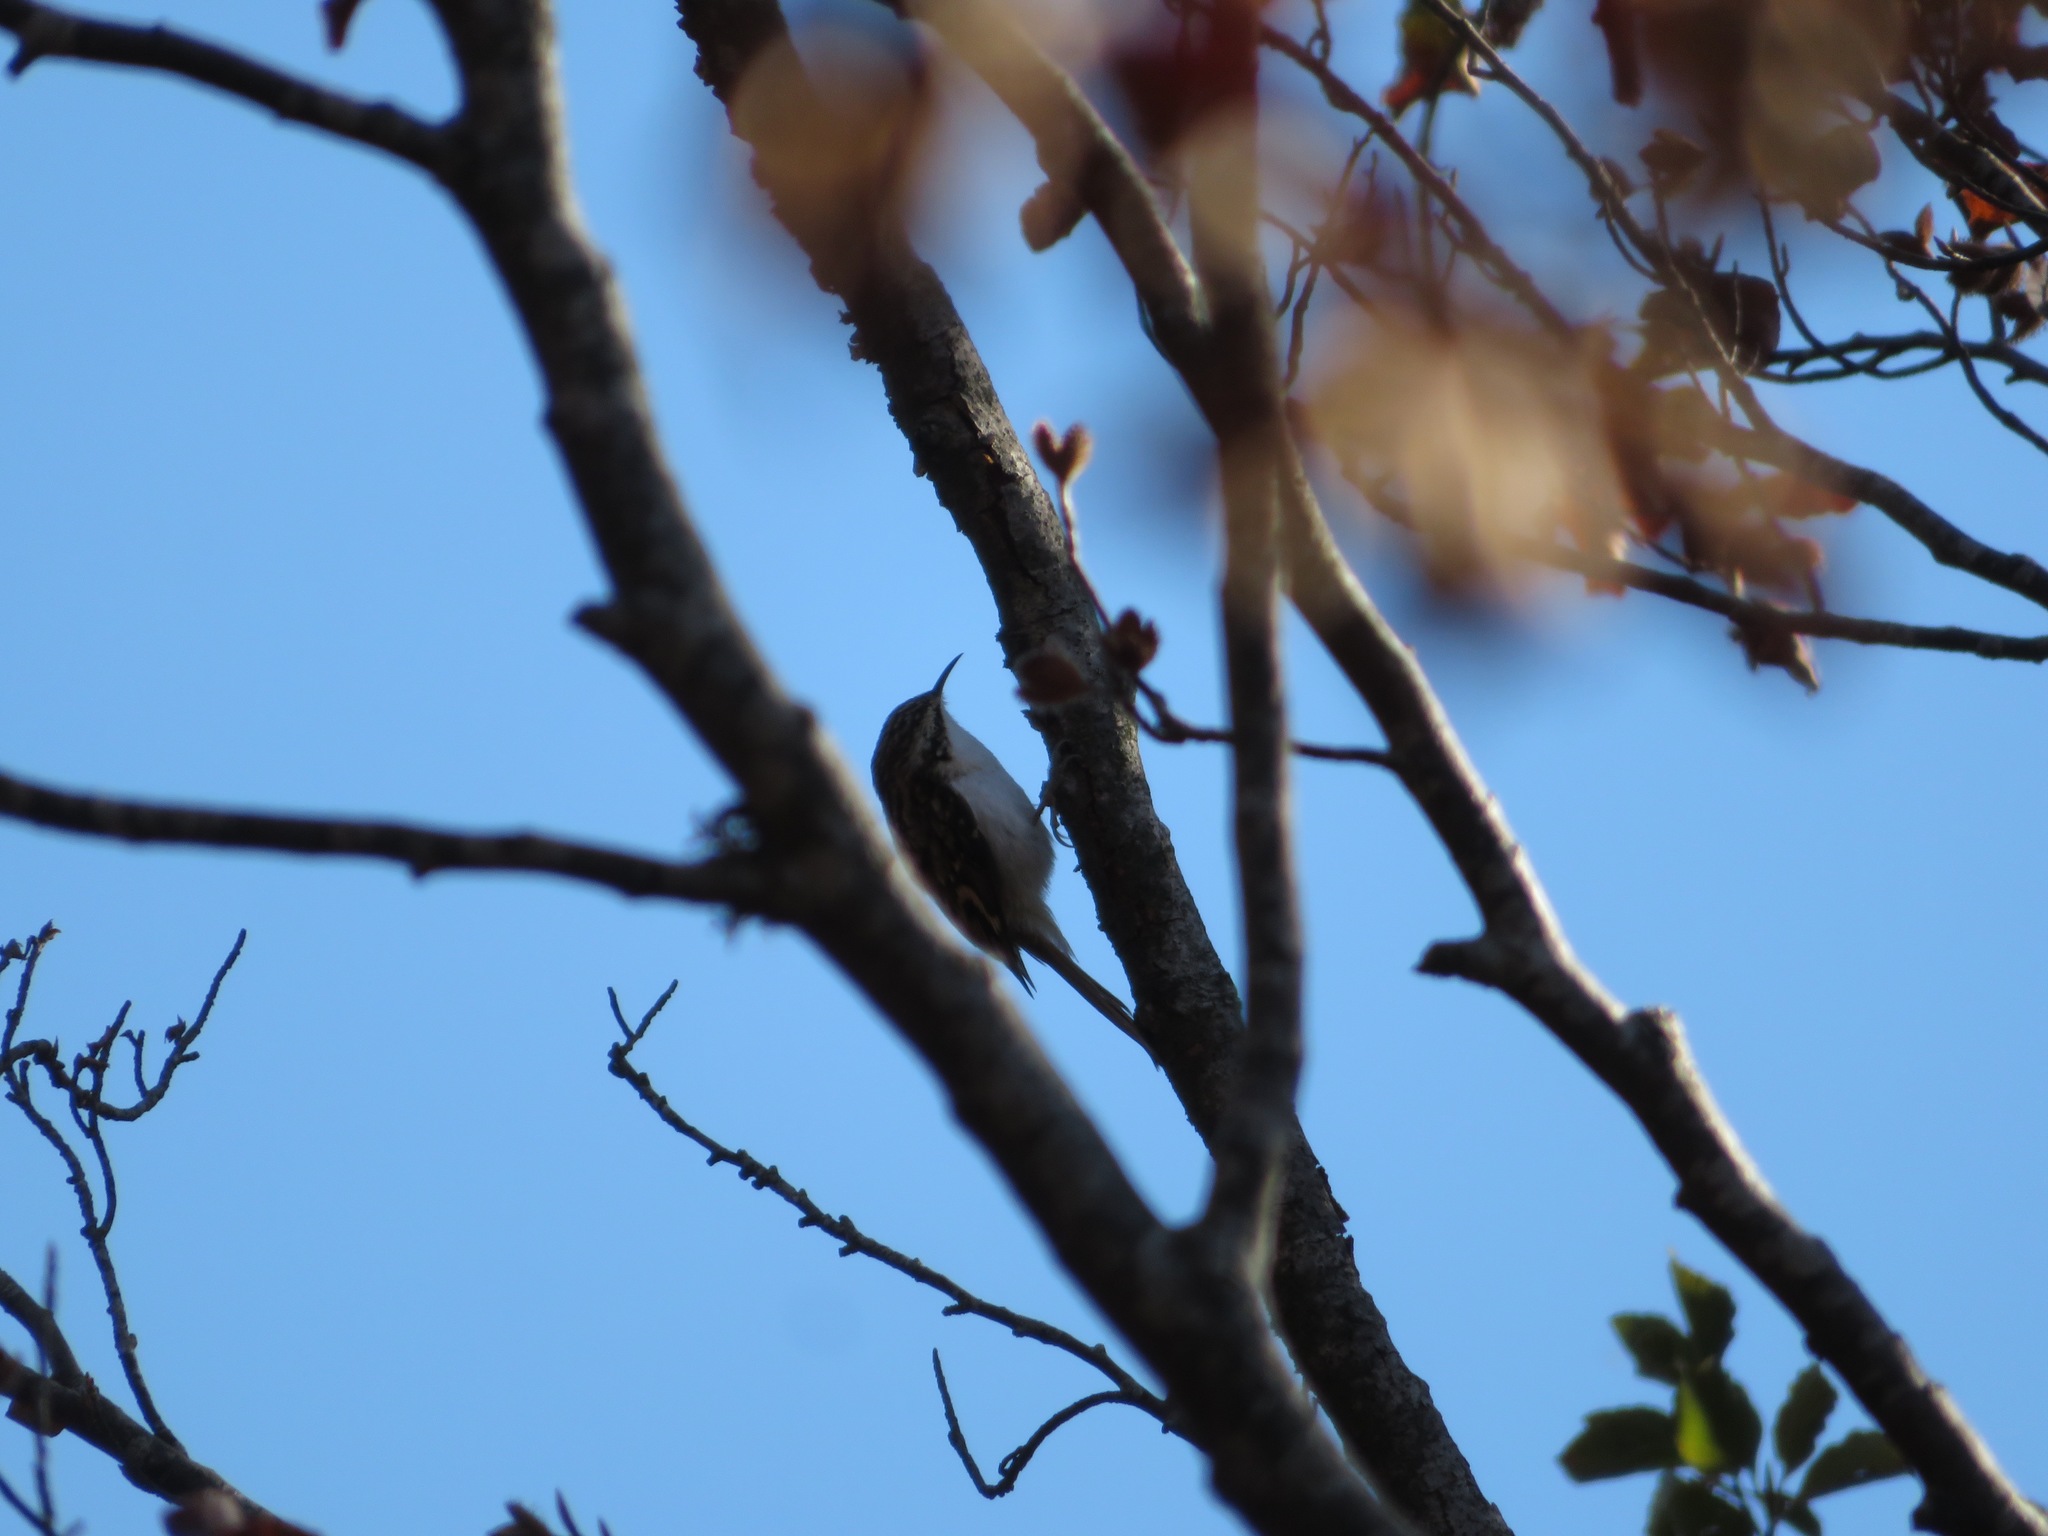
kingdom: Animalia
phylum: Chordata
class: Aves
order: Passeriformes
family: Certhiidae
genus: Certhia
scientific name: Certhia familiaris
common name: Eurasian treecreeper
